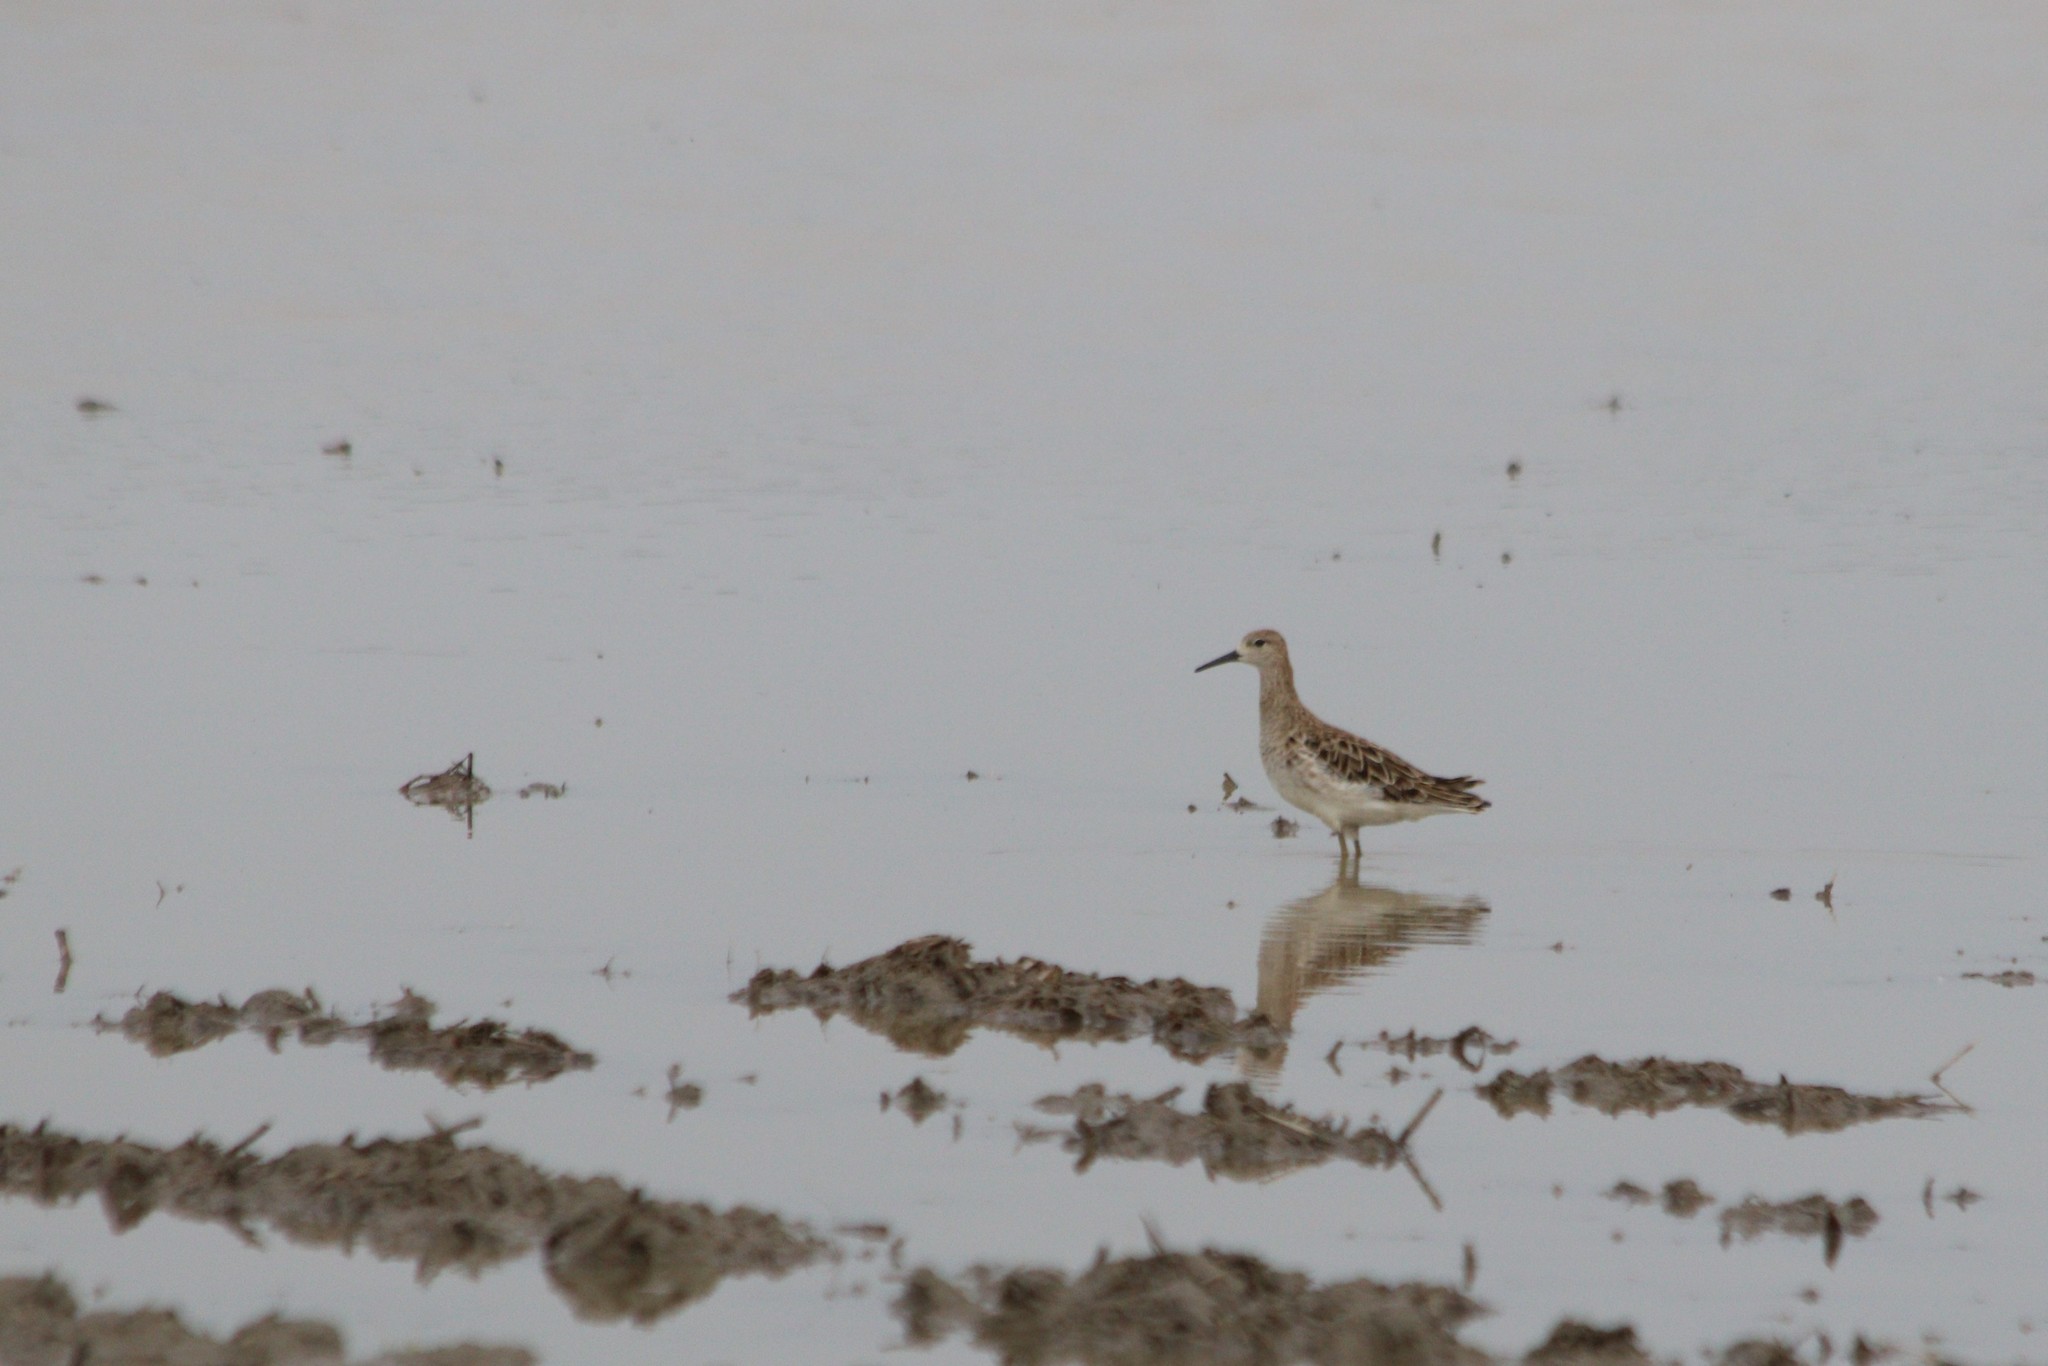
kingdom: Animalia
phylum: Chordata
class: Aves
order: Charadriiformes
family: Scolopacidae
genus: Calidris
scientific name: Calidris pugnax
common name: Ruff
